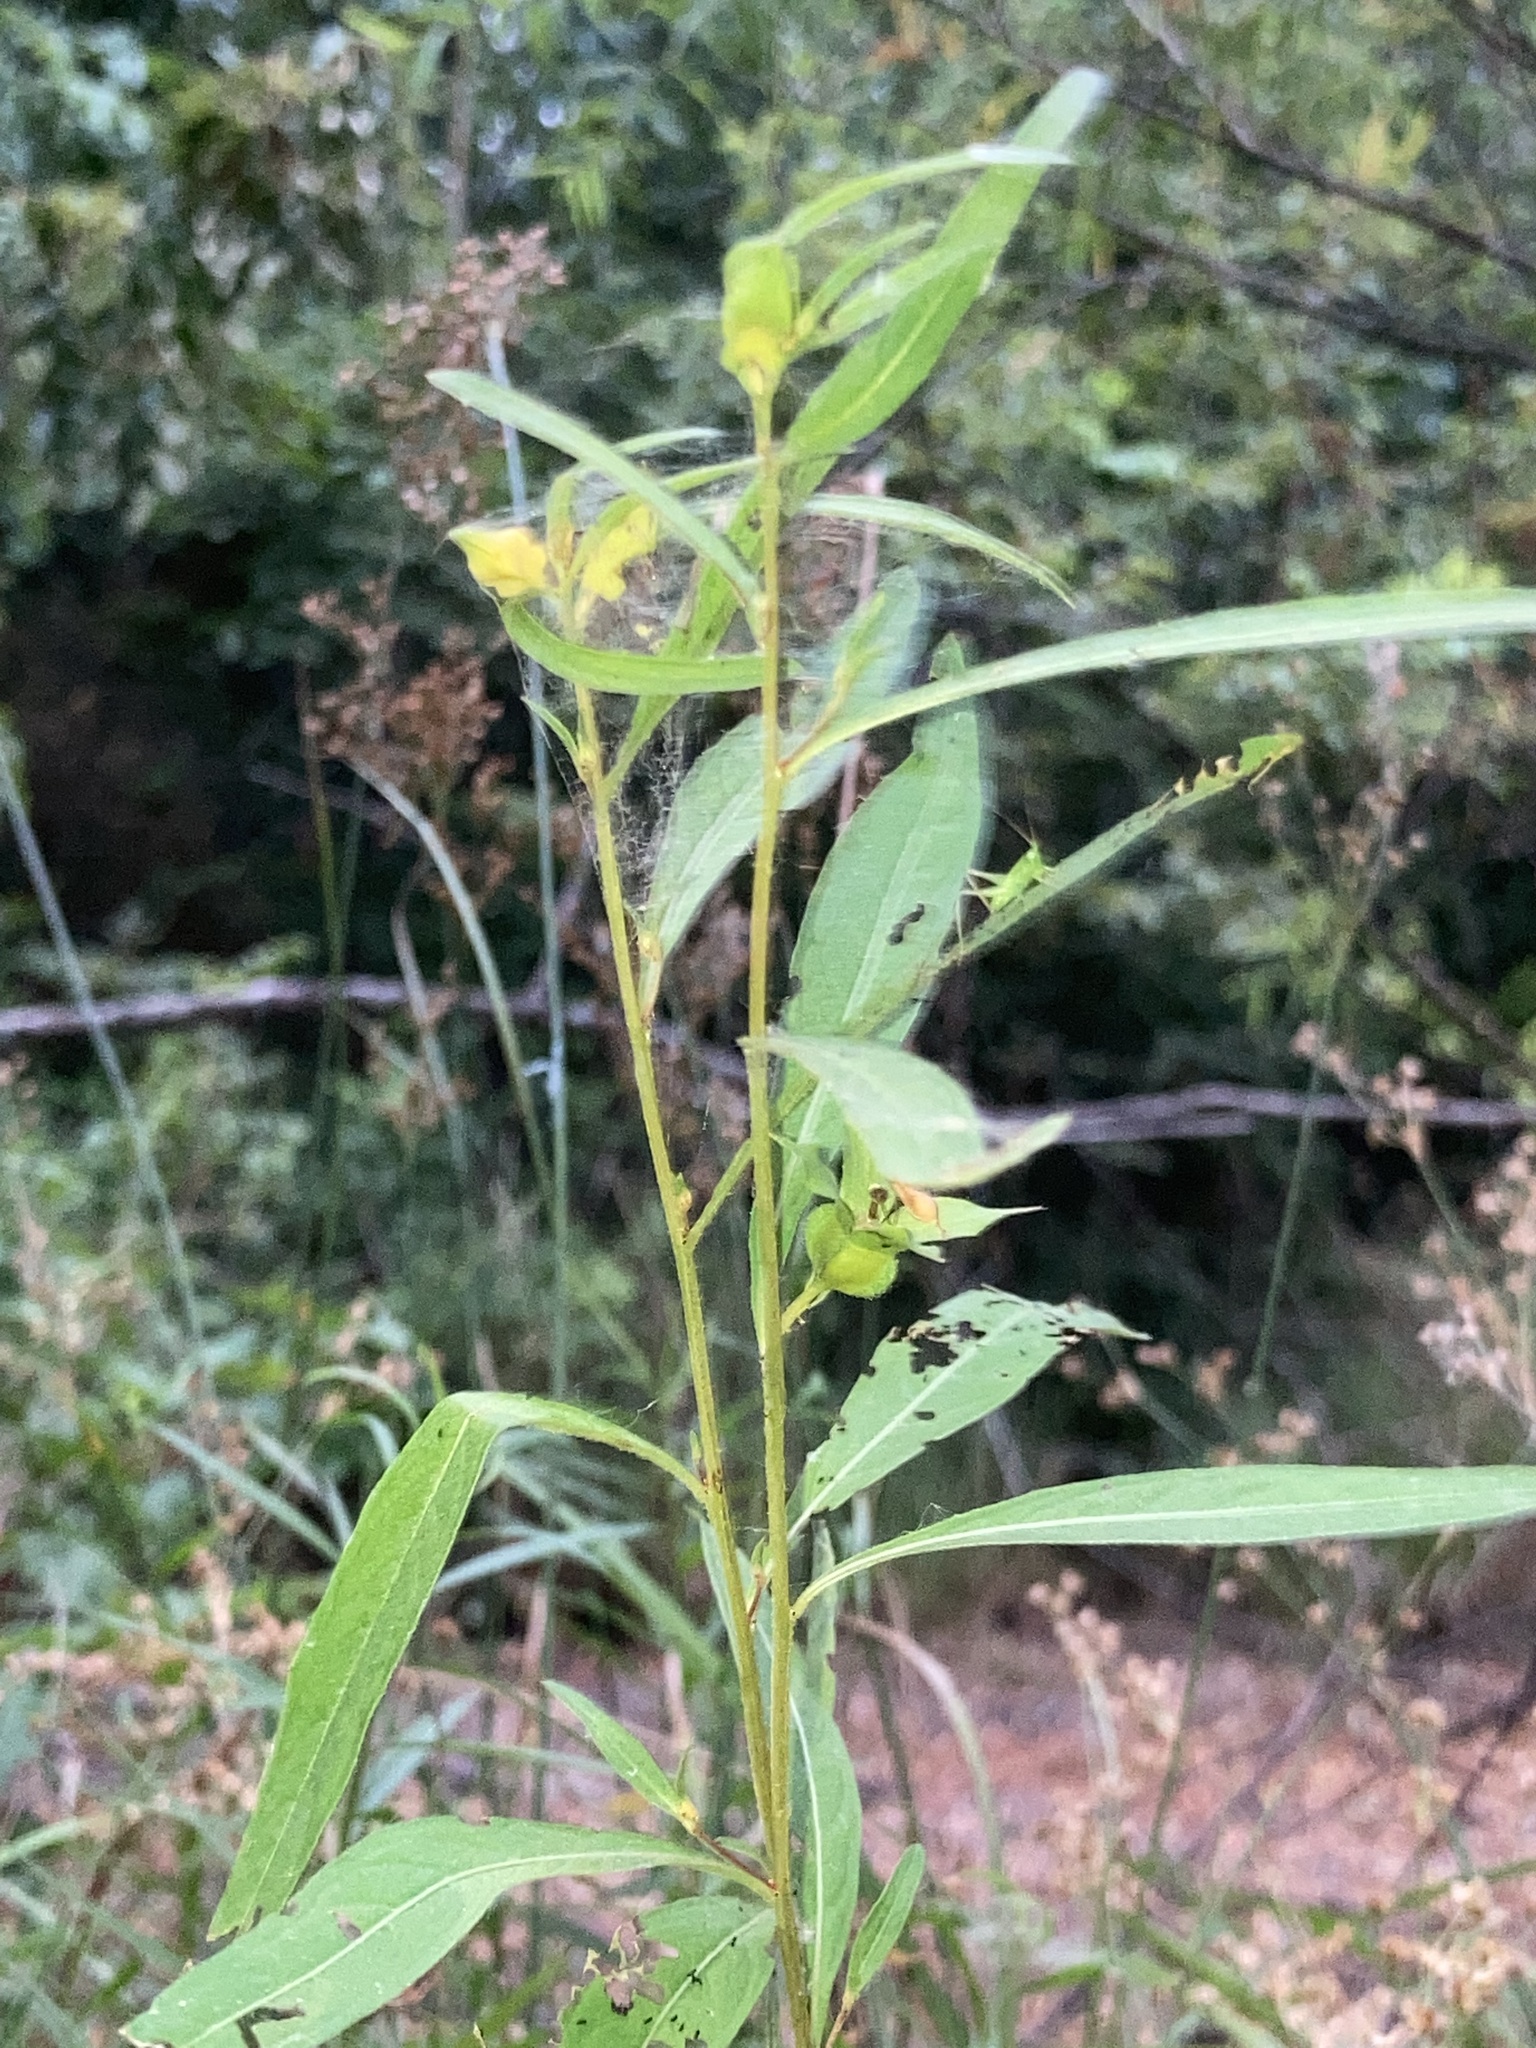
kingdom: Plantae
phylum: Tracheophyta
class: Magnoliopsida
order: Myrtales
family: Onagraceae
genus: Ludwigia
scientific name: Ludwigia alternifolia
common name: Rattlebox
